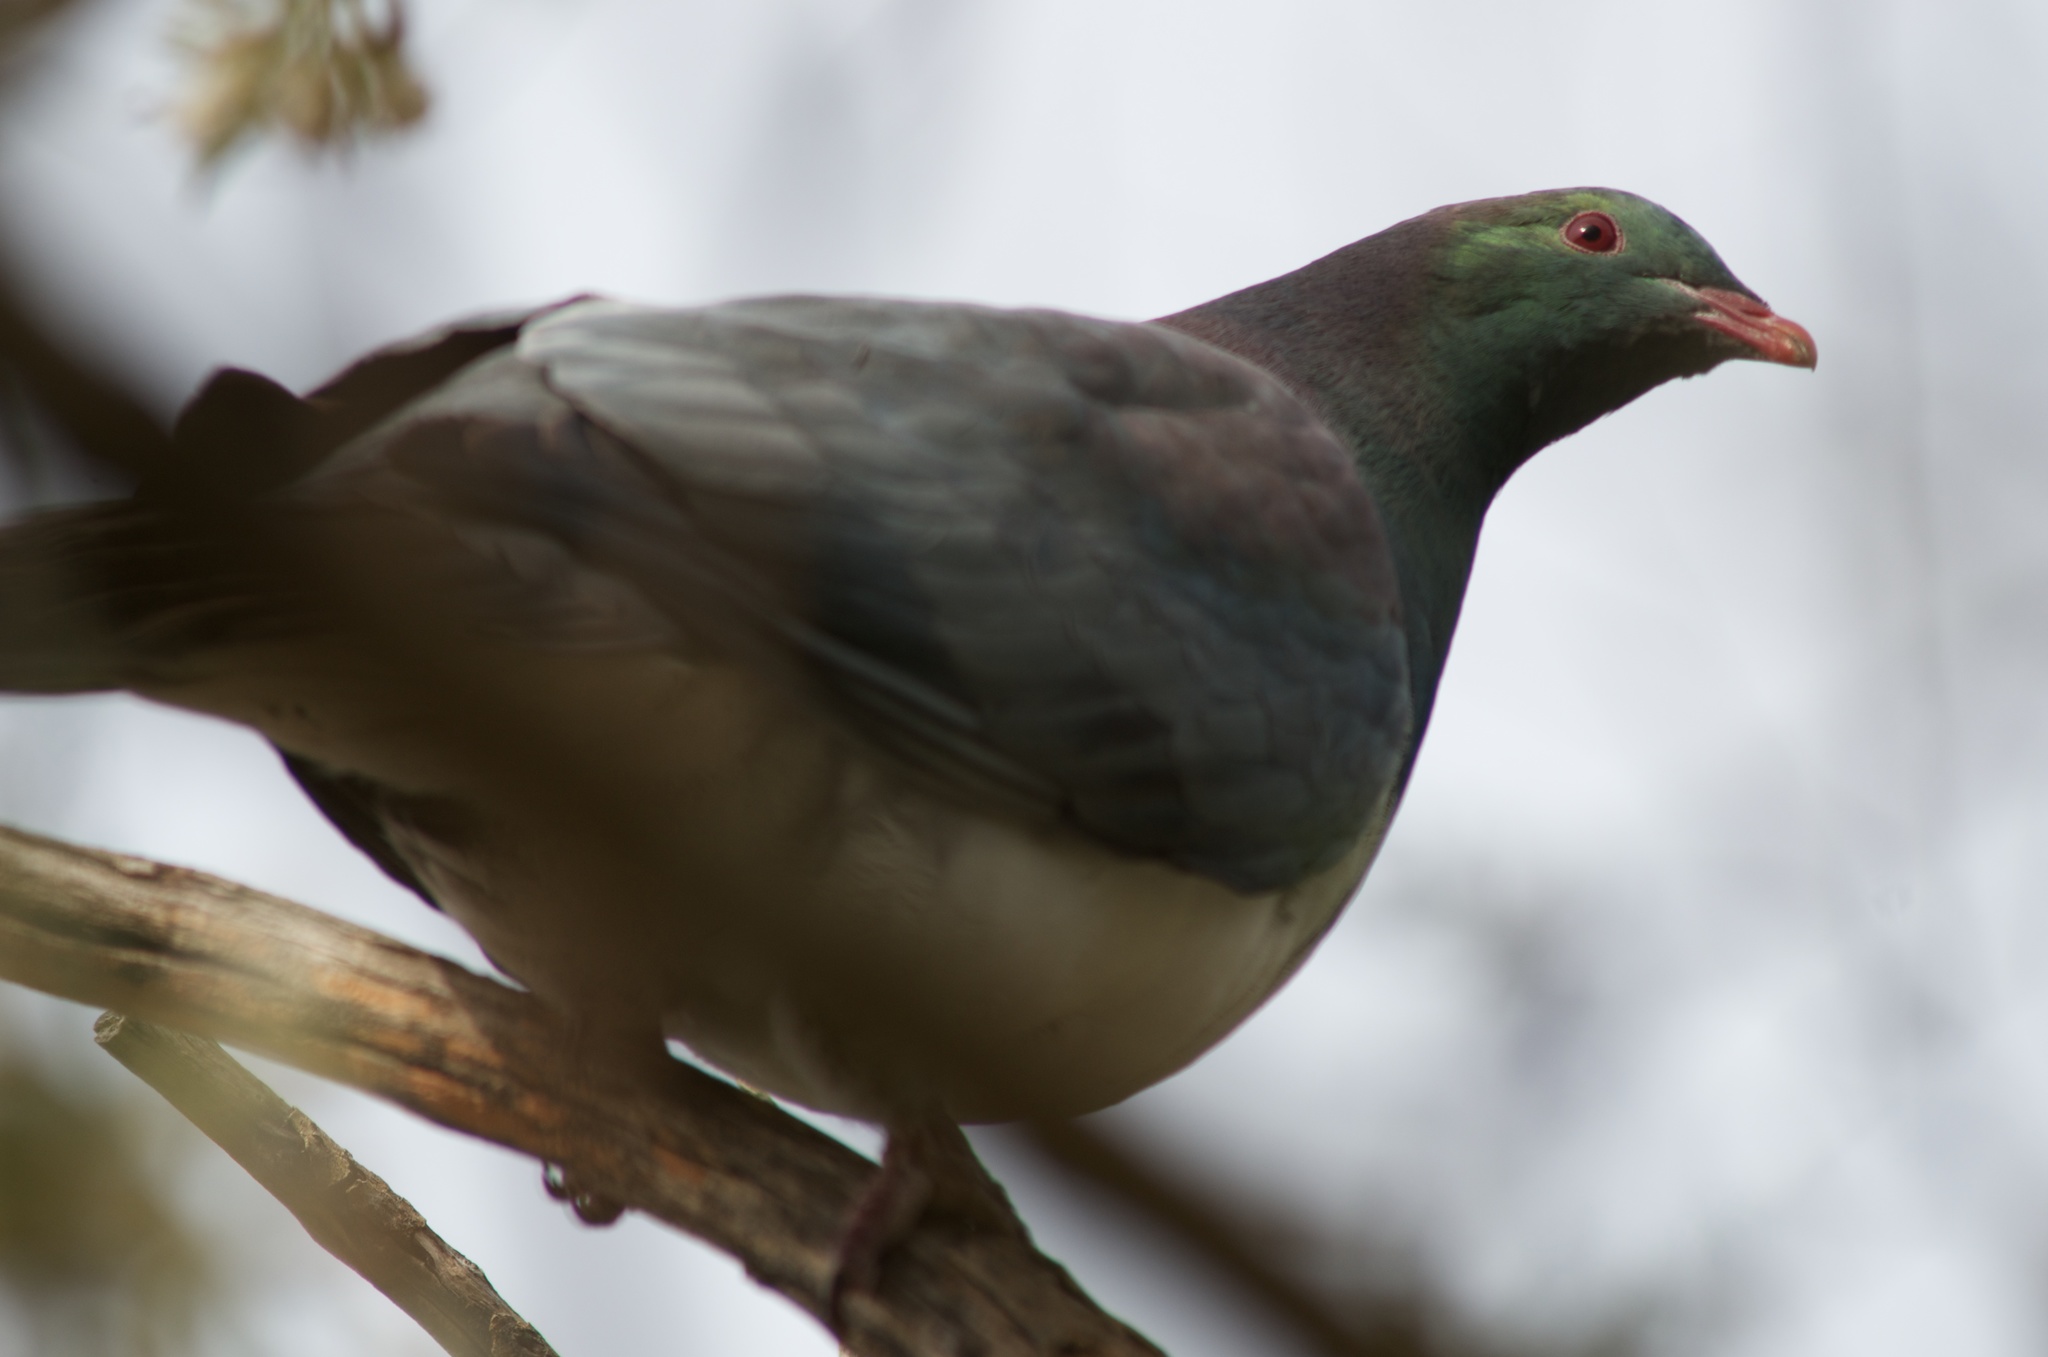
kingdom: Animalia
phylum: Chordata
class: Aves
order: Columbiformes
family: Columbidae
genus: Hemiphaga
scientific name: Hemiphaga novaeseelandiae
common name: New zealand pigeon
